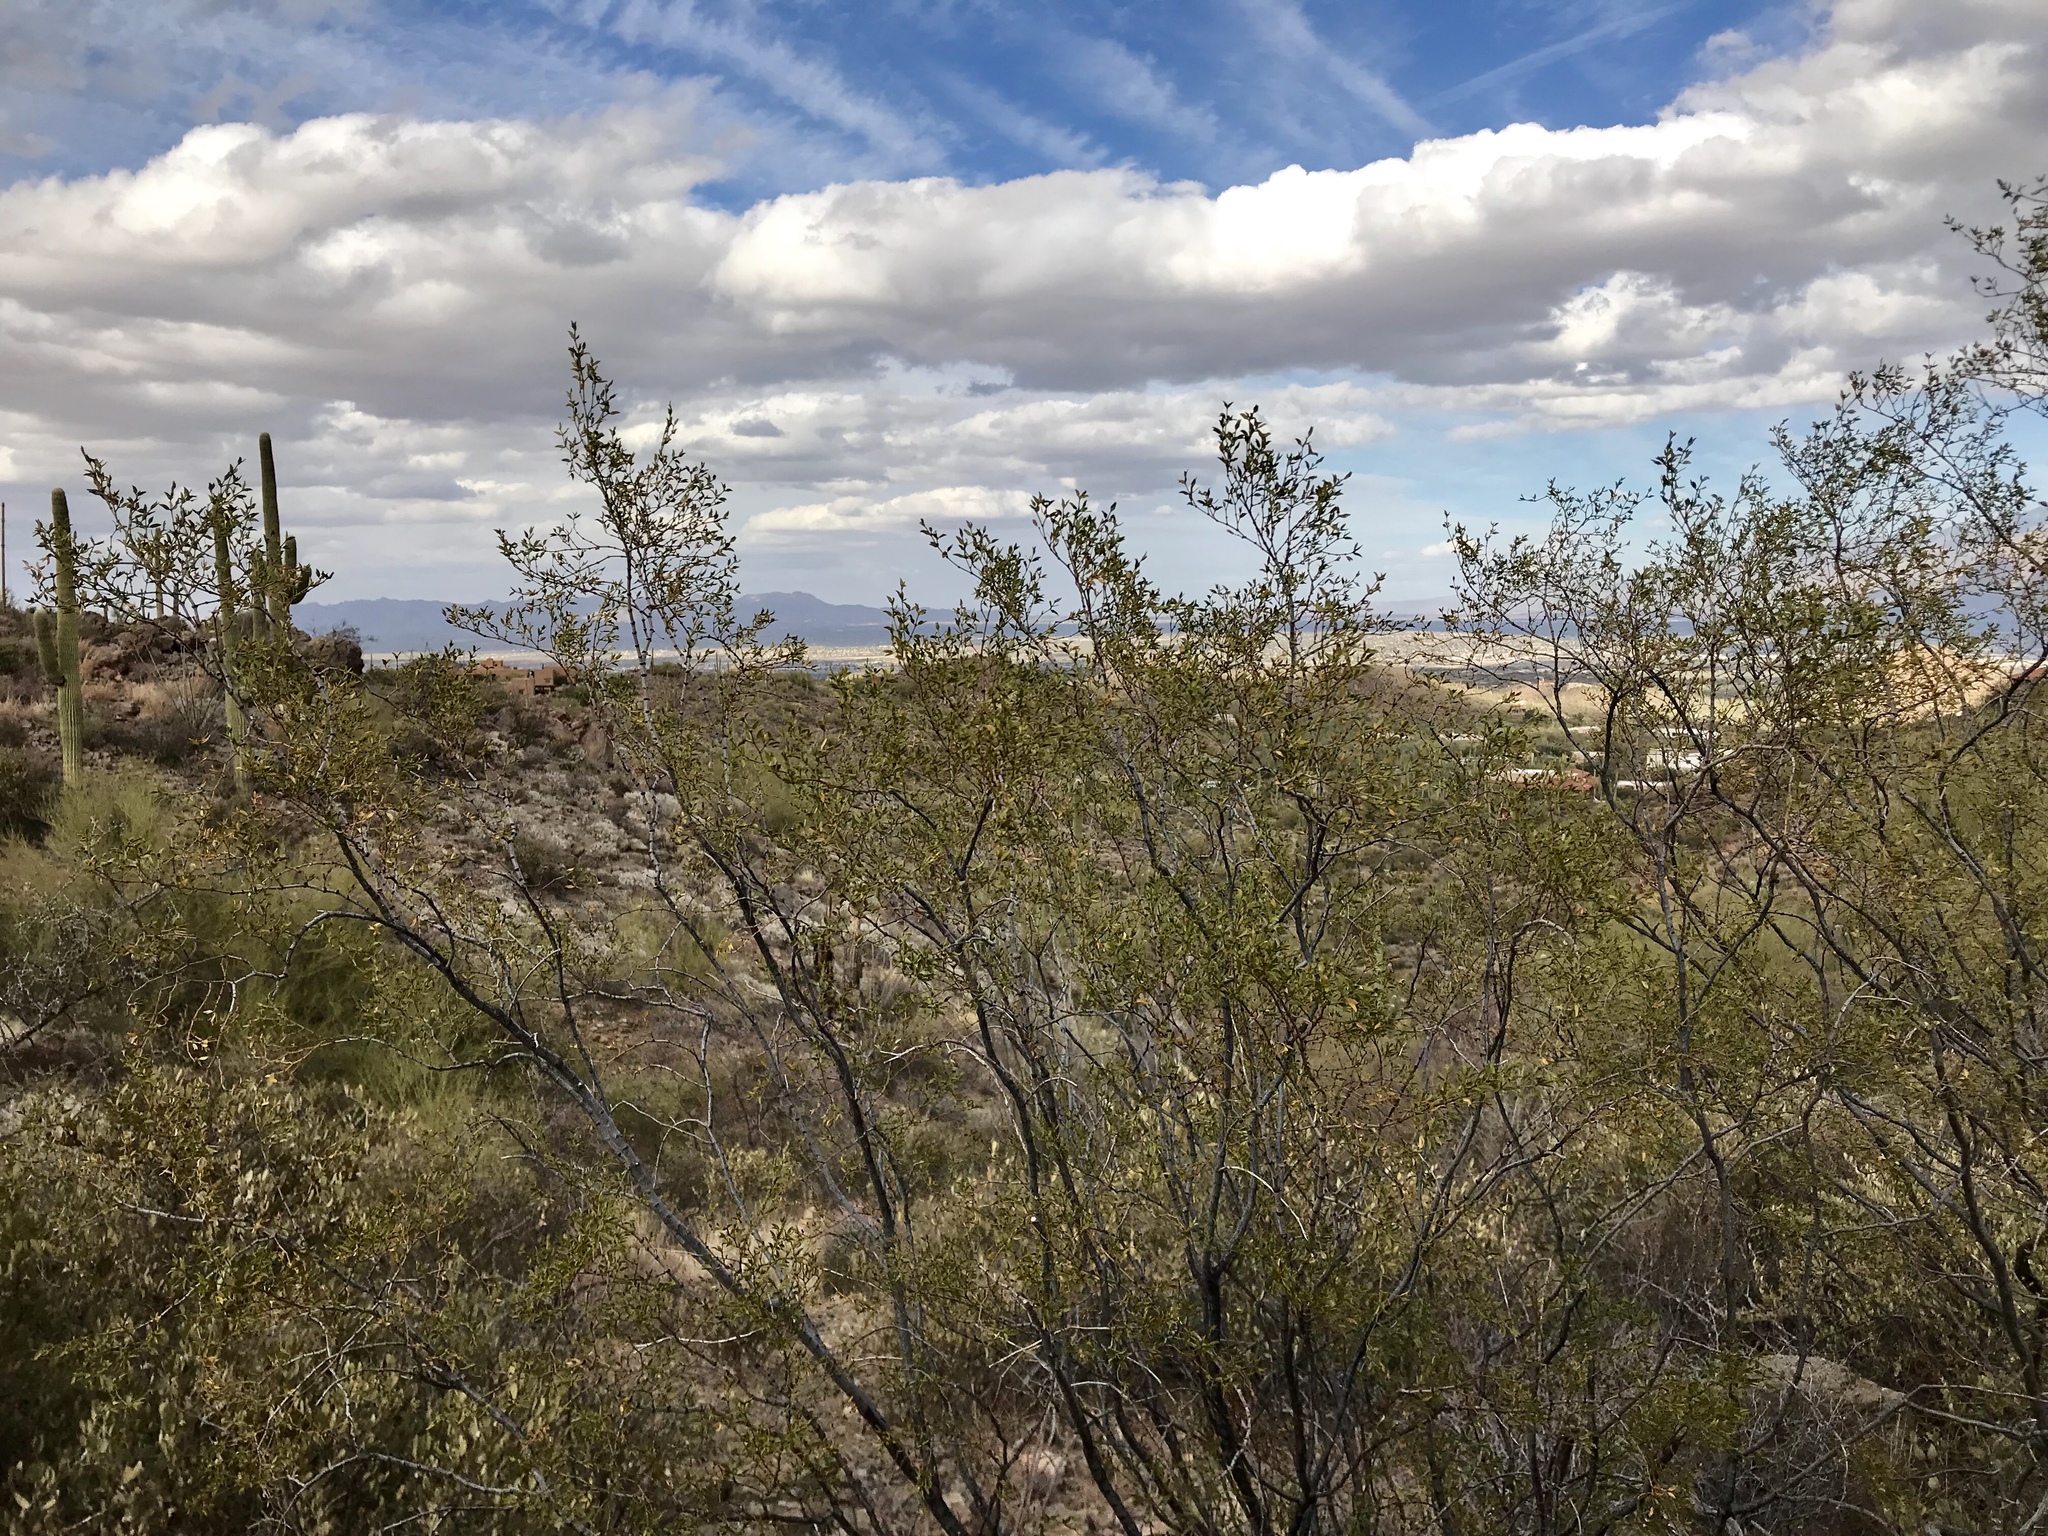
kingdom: Plantae
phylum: Tracheophyta
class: Magnoliopsida
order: Zygophyllales
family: Zygophyllaceae
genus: Larrea
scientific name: Larrea tridentata
